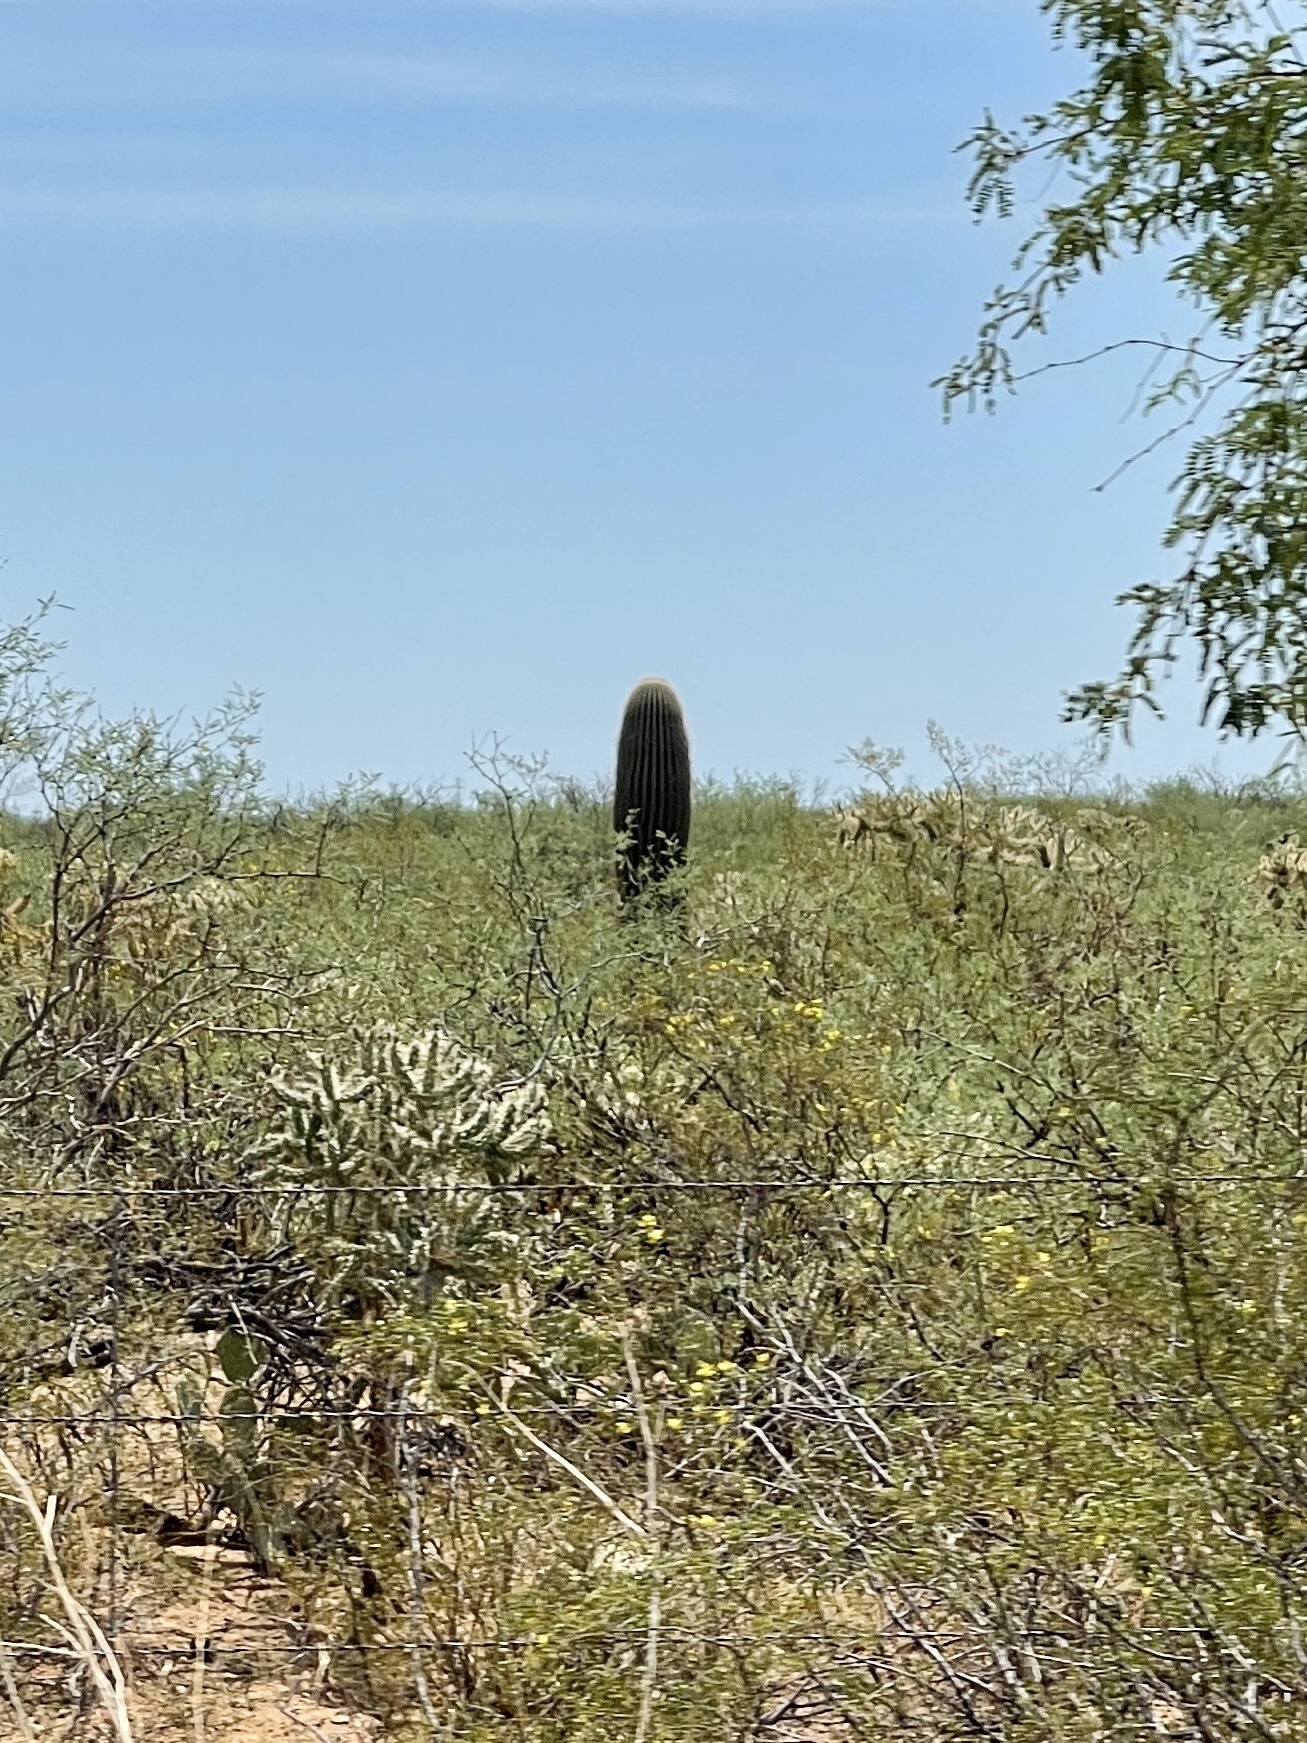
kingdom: Plantae
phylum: Tracheophyta
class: Magnoliopsida
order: Caryophyllales
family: Cactaceae
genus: Carnegiea
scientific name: Carnegiea gigantea
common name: Saguaro
